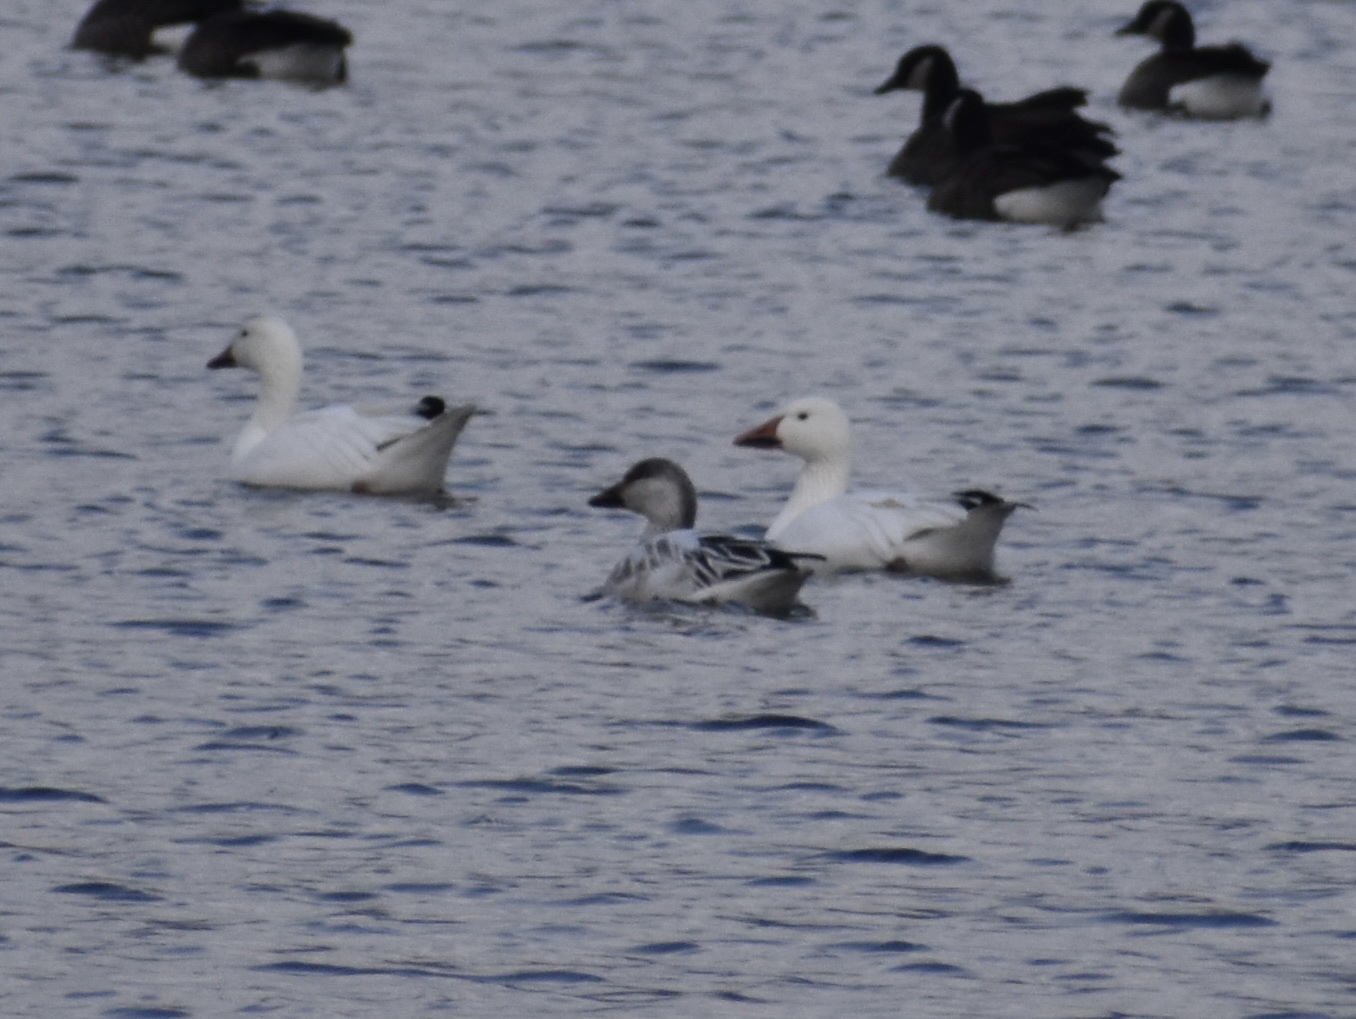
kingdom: Animalia
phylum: Chordata
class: Aves
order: Anseriformes
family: Anatidae
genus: Anser
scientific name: Anser caerulescens
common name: Snow goose
